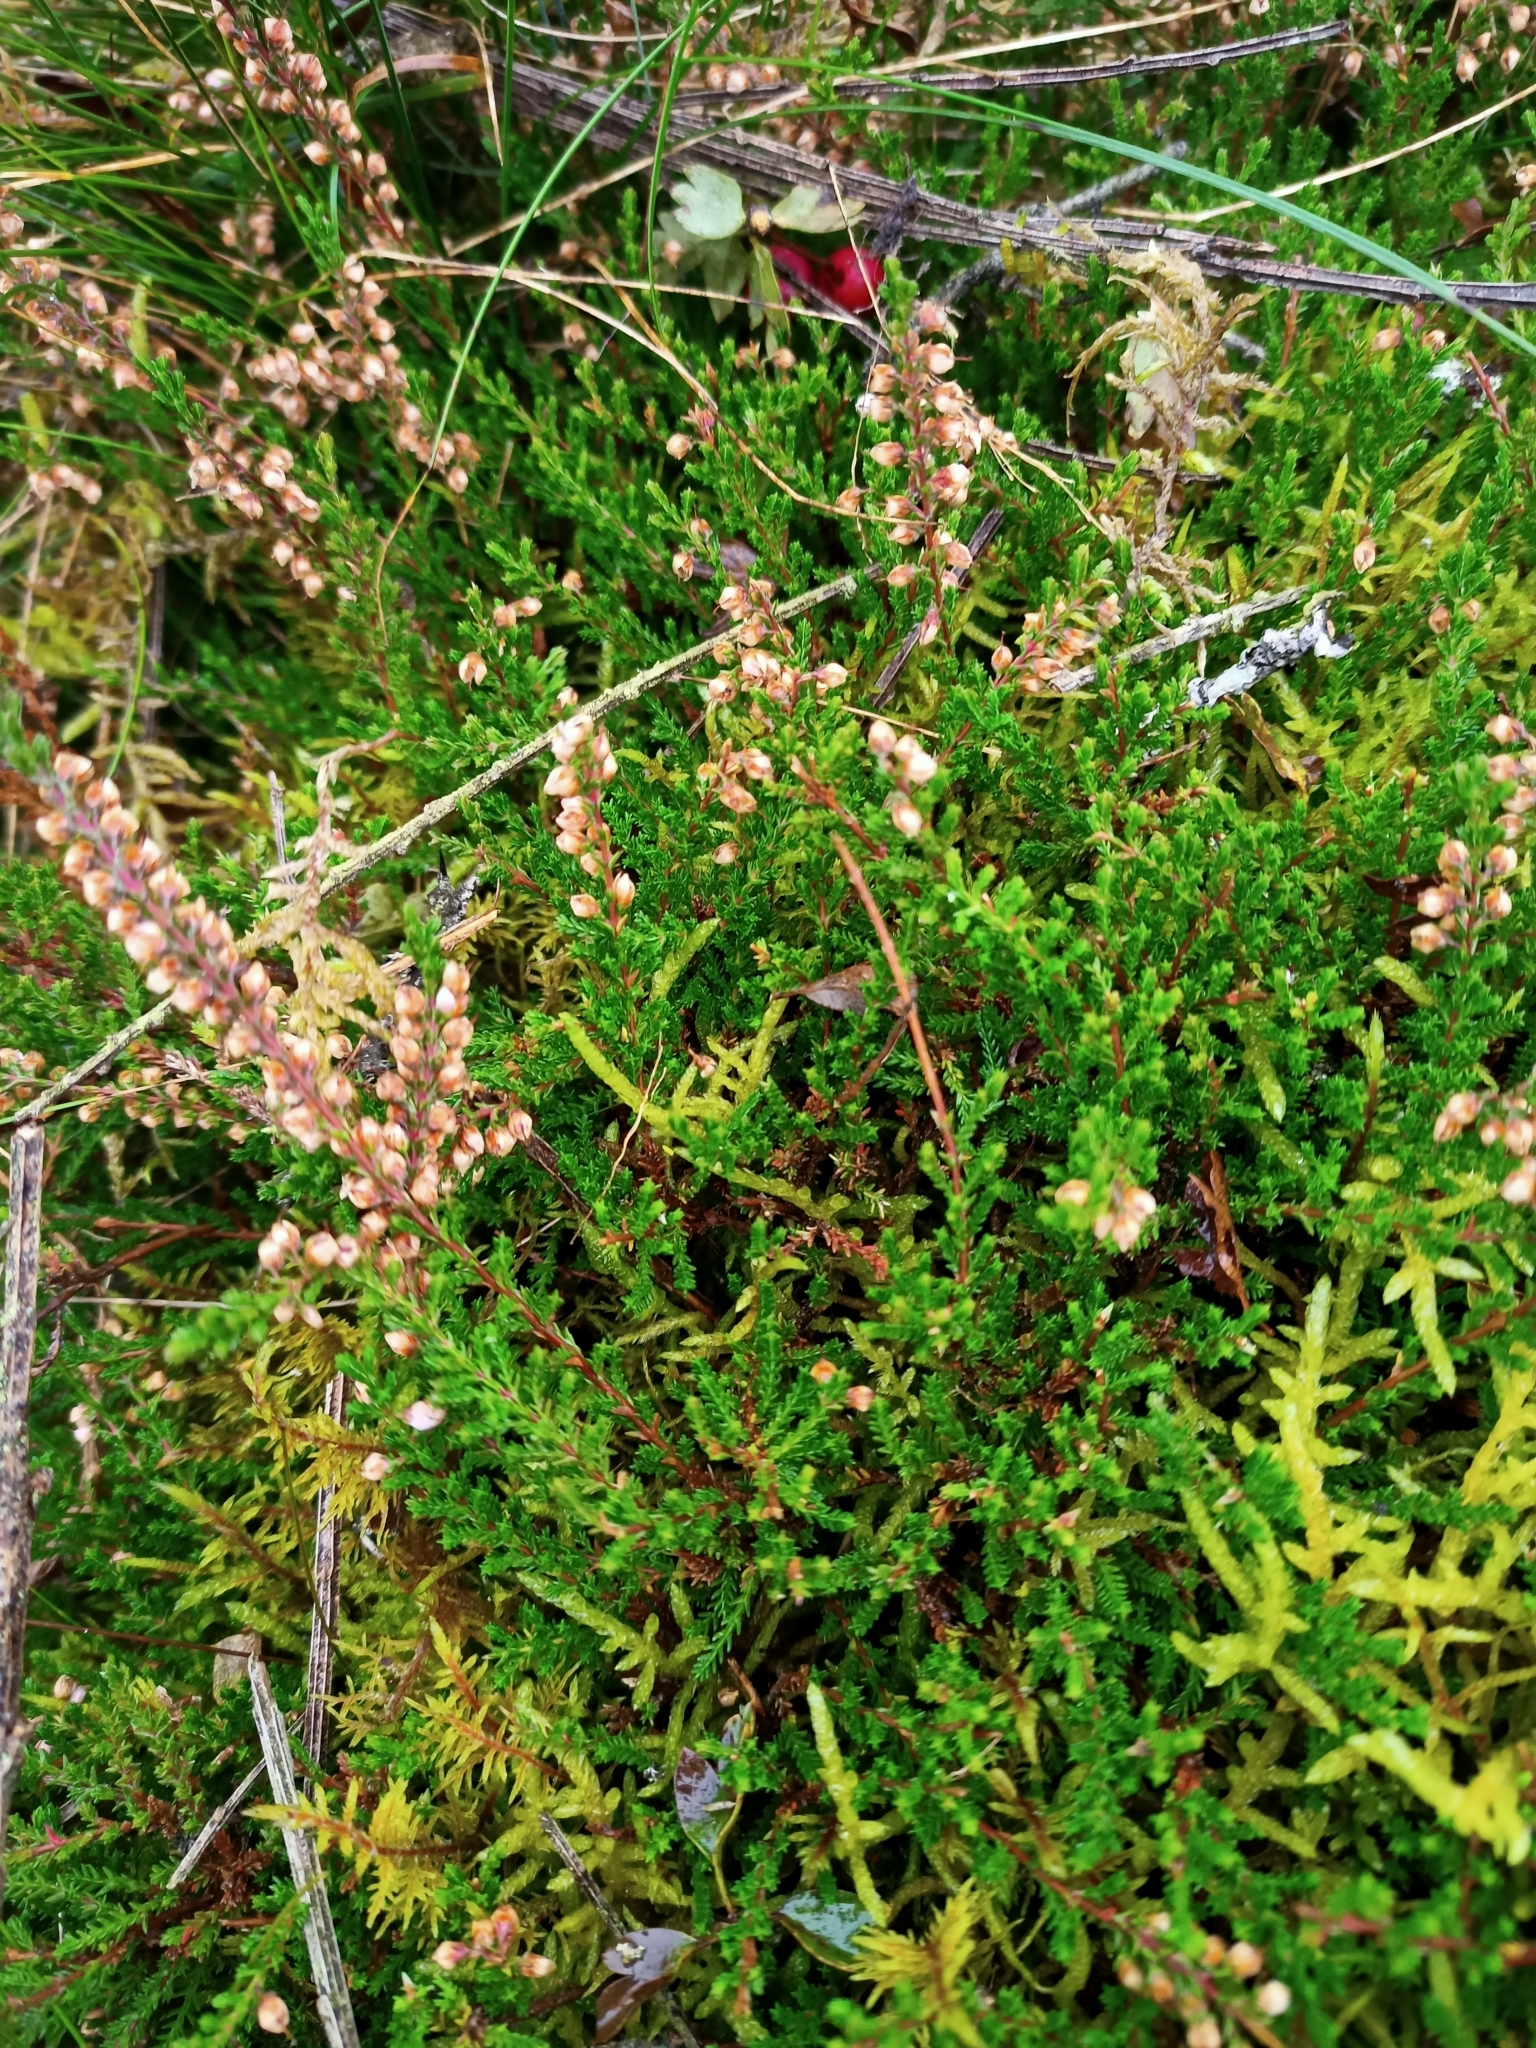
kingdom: Plantae
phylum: Tracheophyta
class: Magnoliopsida
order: Ericales
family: Ericaceae
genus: Calluna
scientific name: Calluna vulgaris
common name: Heather
